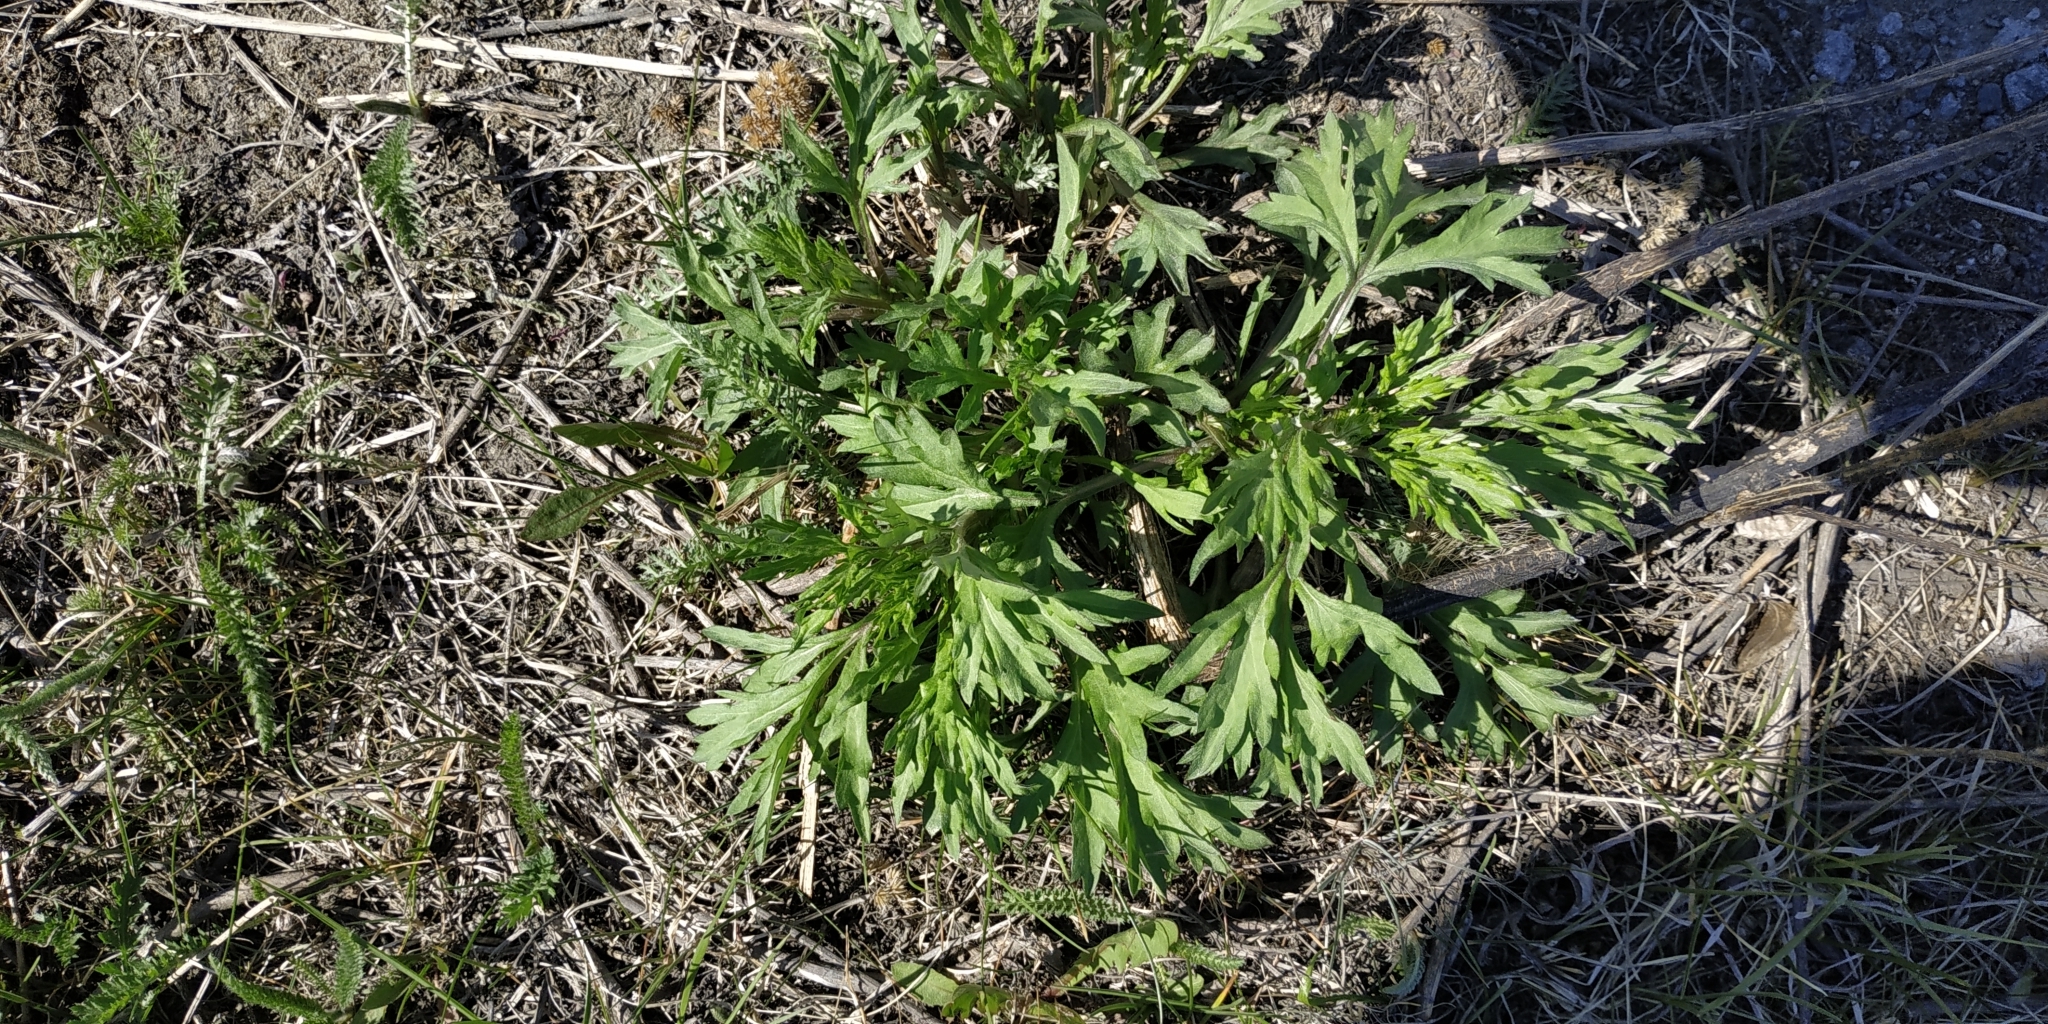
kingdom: Plantae
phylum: Tracheophyta
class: Magnoliopsida
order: Asterales
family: Asteraceae
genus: Artemisia
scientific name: Artemisia vulgaris
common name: Mugwort
